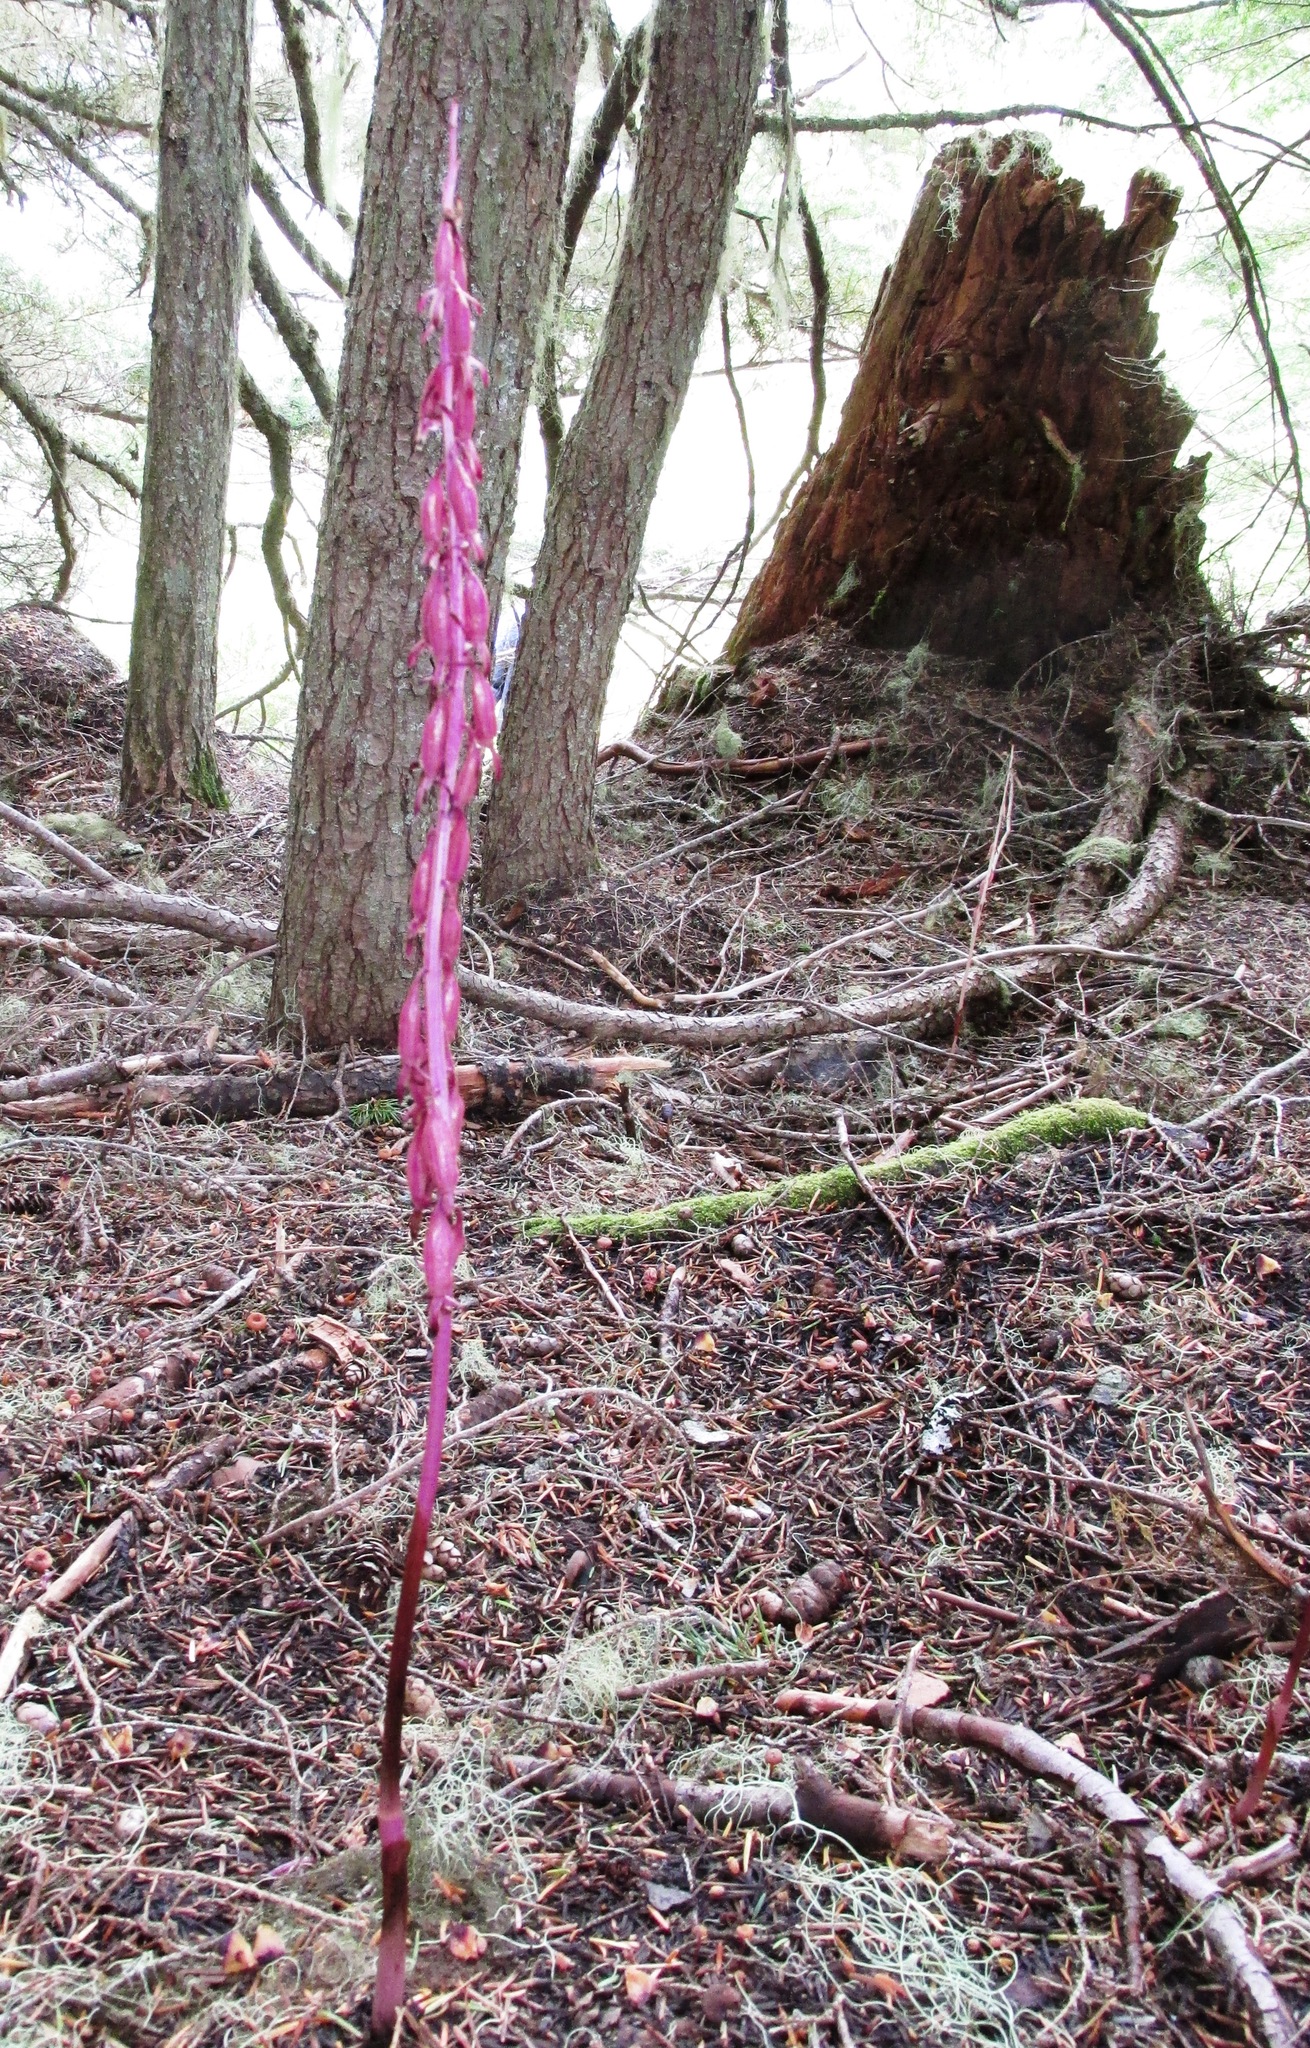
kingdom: Plantae
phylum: Tracheophyta
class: Liliopsida
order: Asparagales
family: Orchidaceae
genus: Corallorhiza
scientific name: Corallorhiza mertensiana
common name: Pacific coralroot
